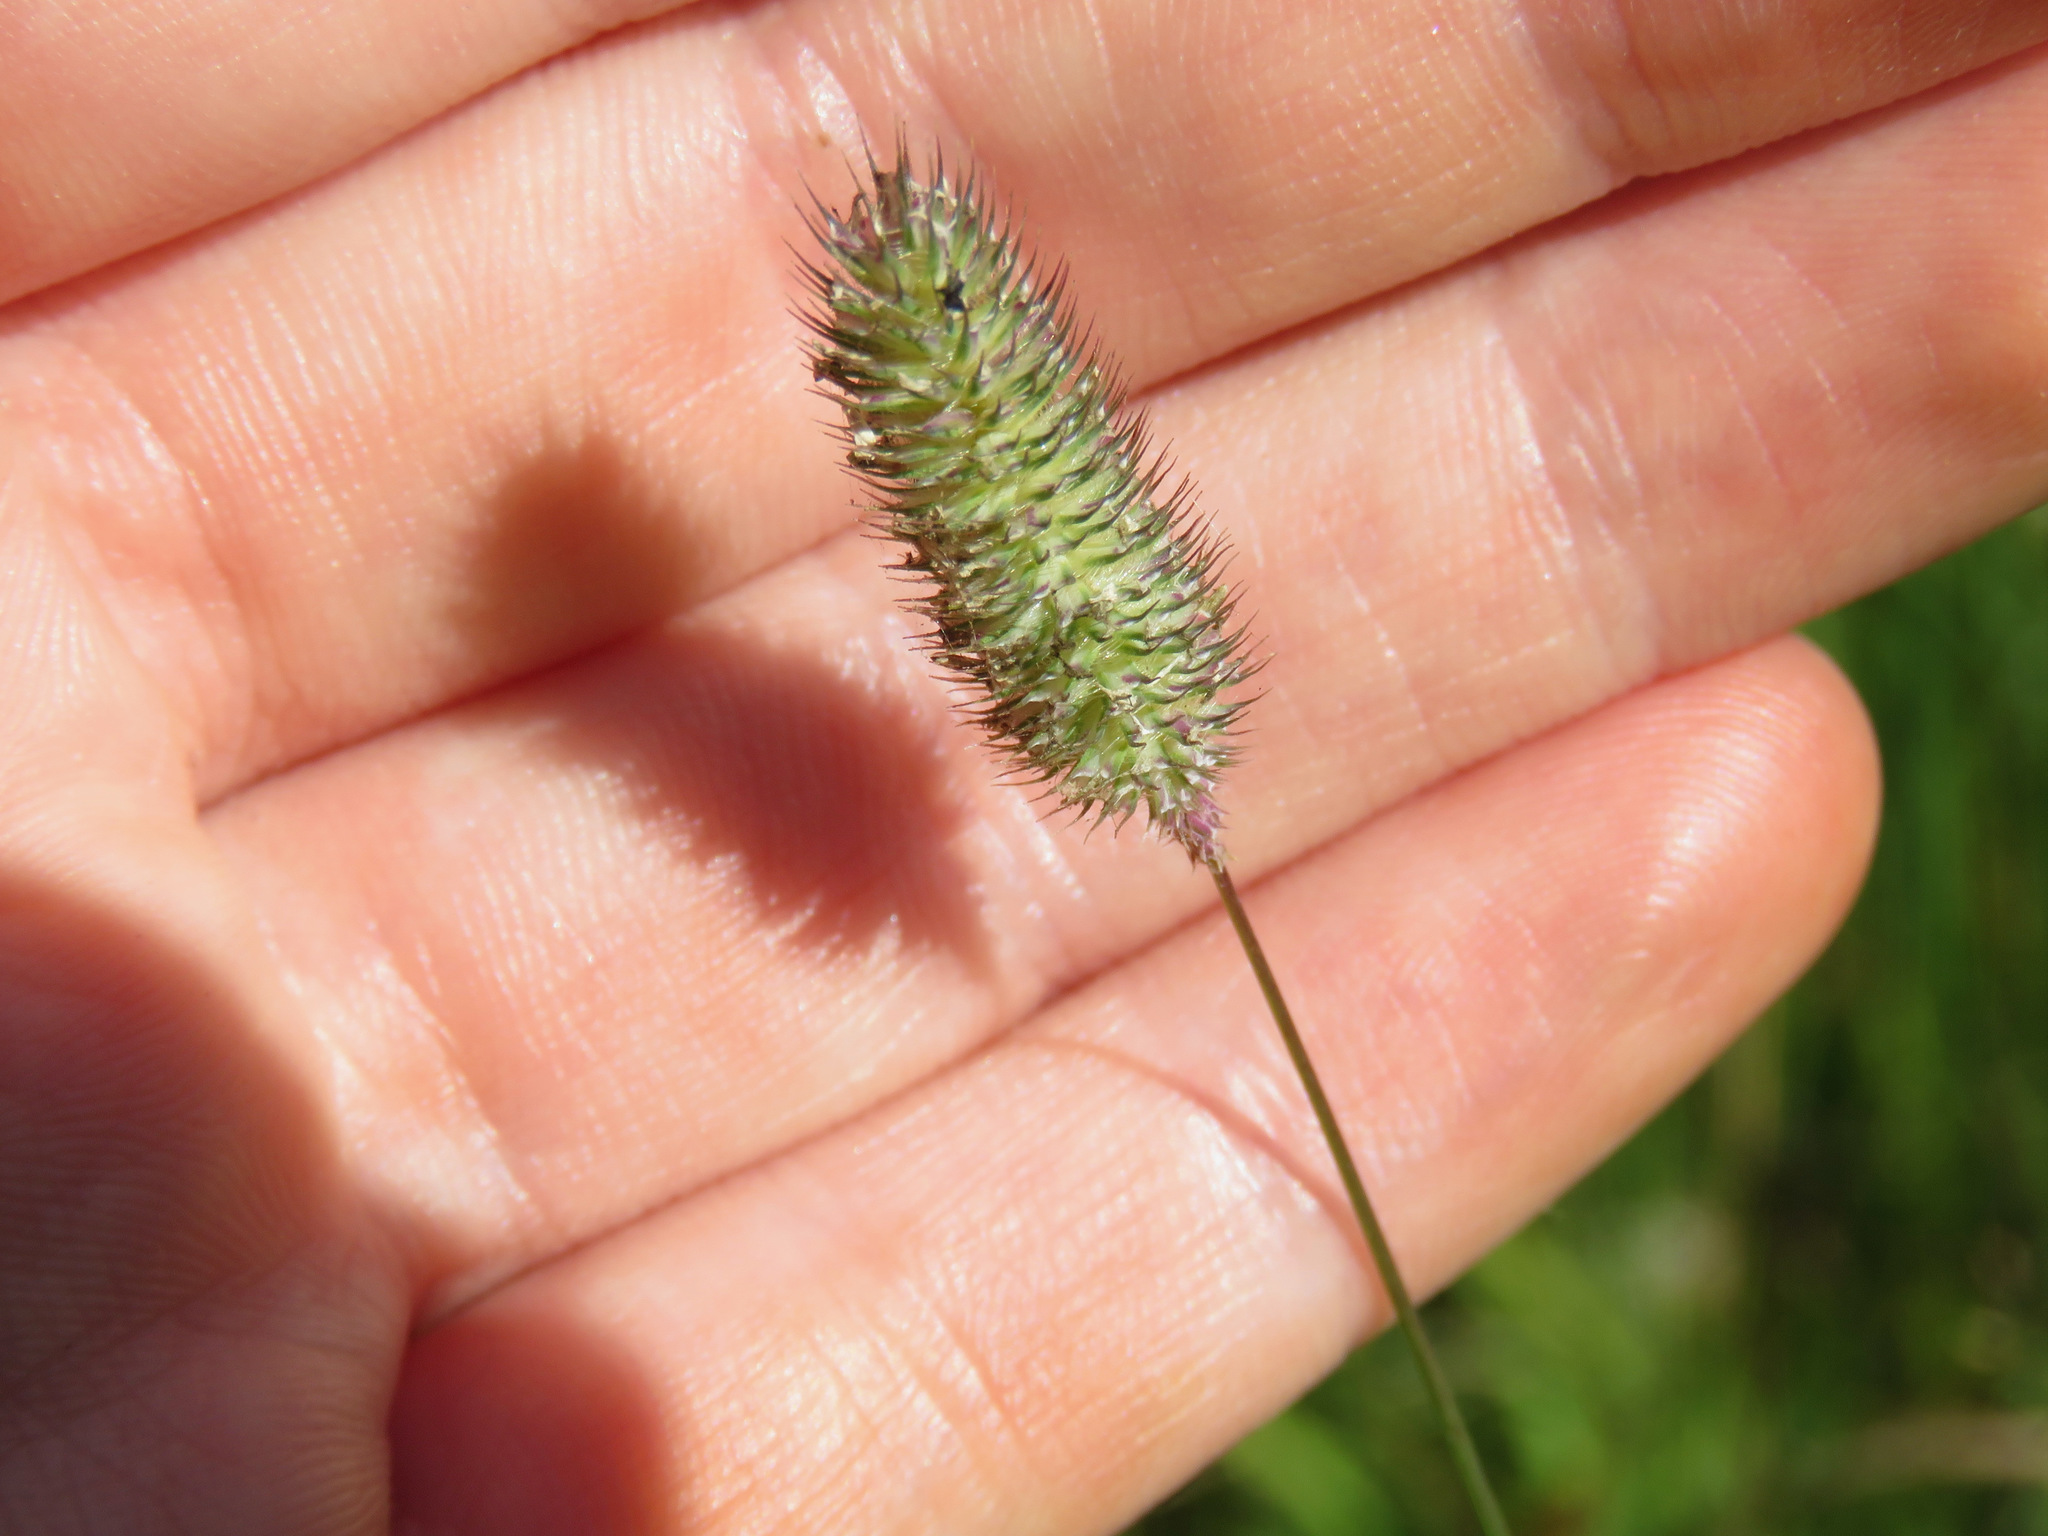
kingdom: Plantae
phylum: Tracheophyta
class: Liliopsida
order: Poales
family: Poaceae
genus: Phleum
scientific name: Phleum alpinum
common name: Alpine cat's-tail
